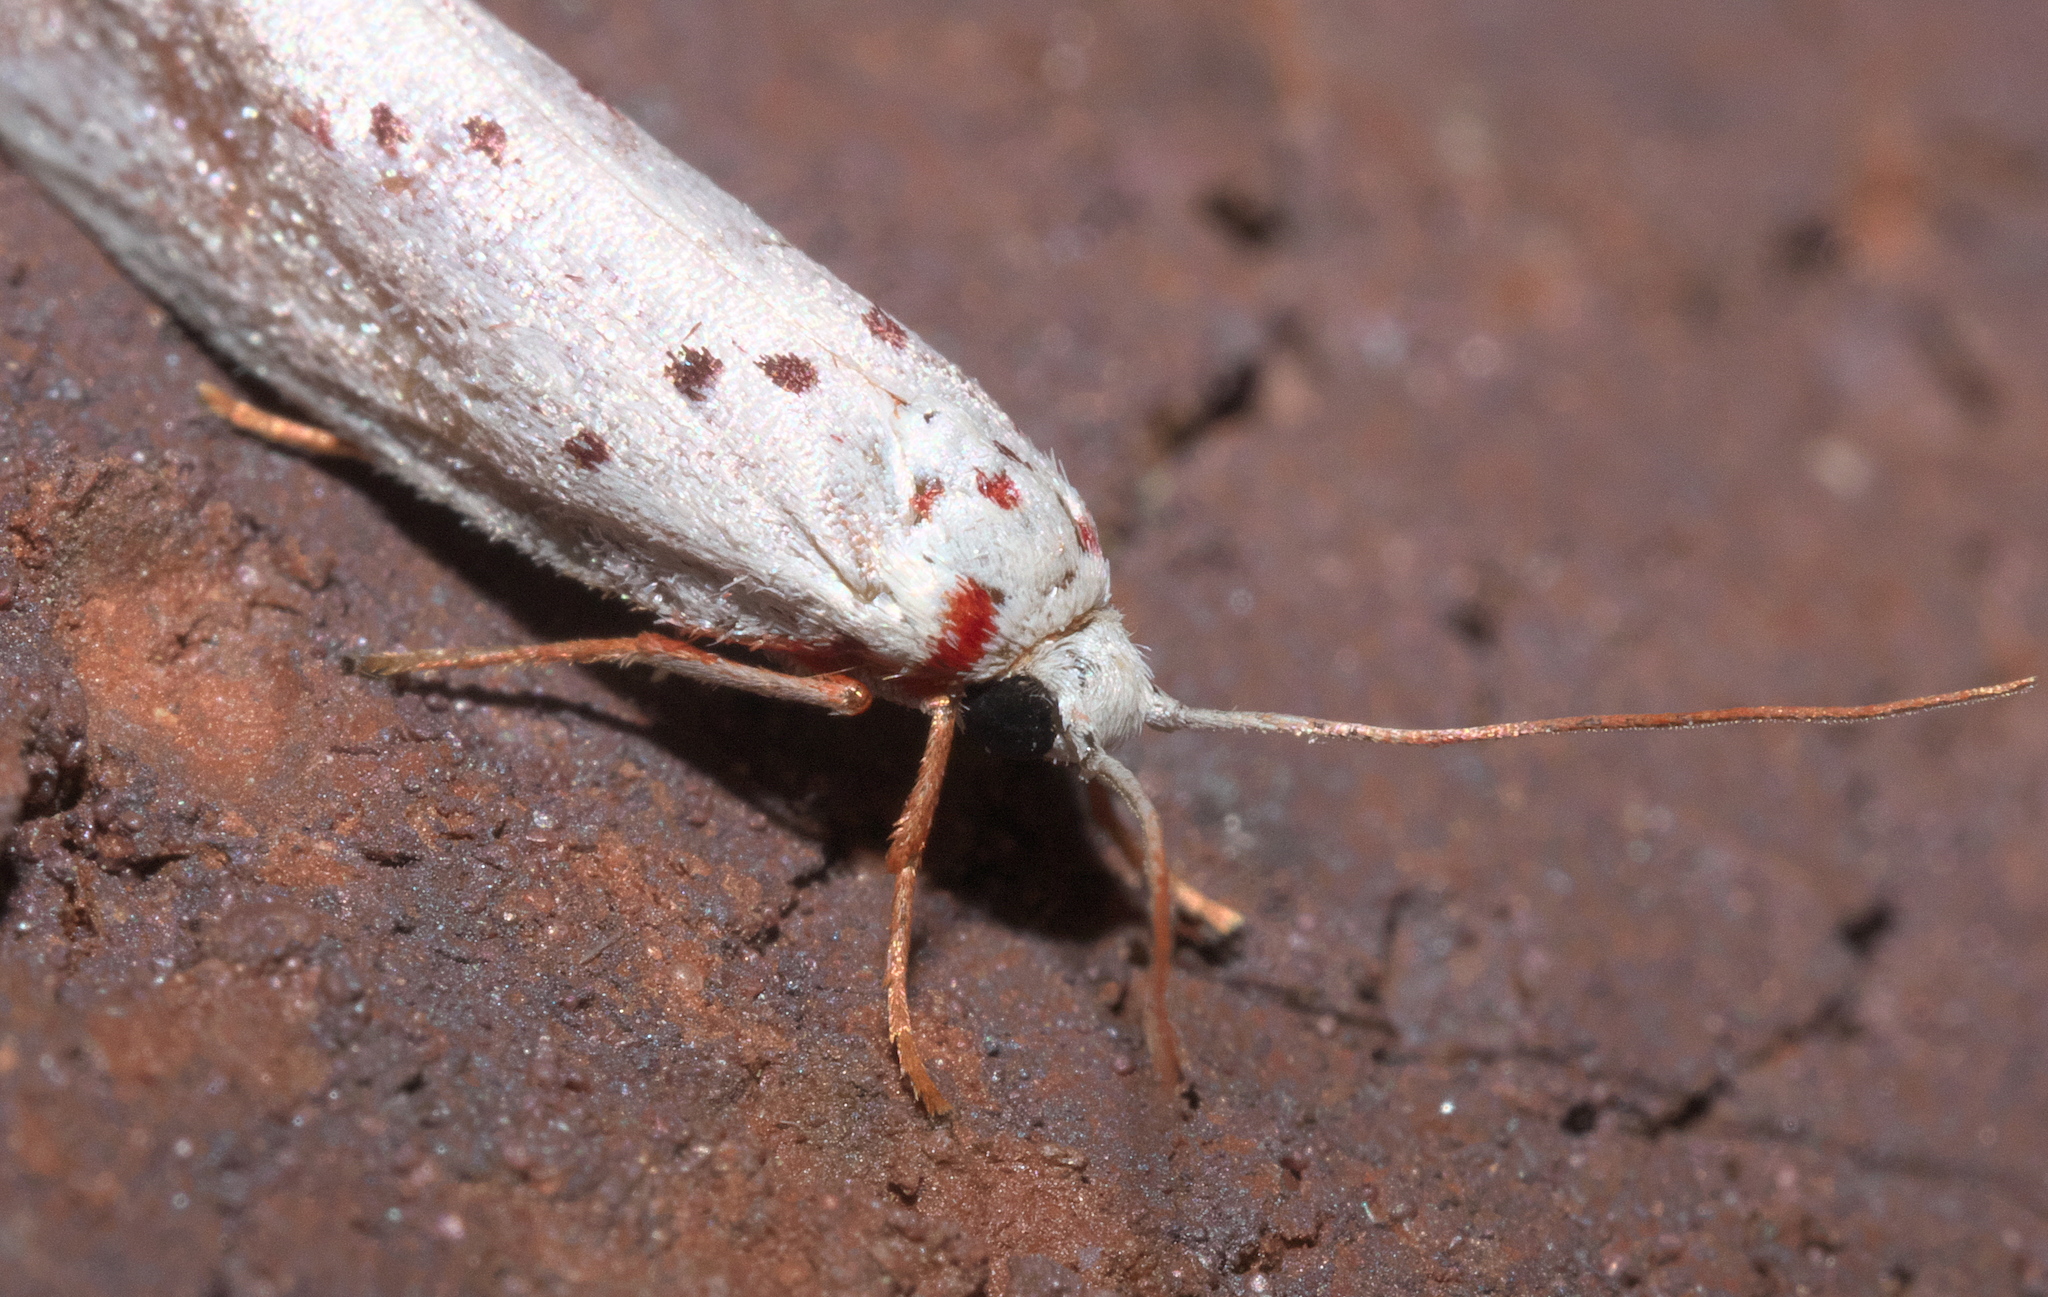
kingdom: Animalia
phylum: Arthropoda
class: Insecta
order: Lepidoptera
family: Lacturidae
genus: Lactura
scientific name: Lactura
